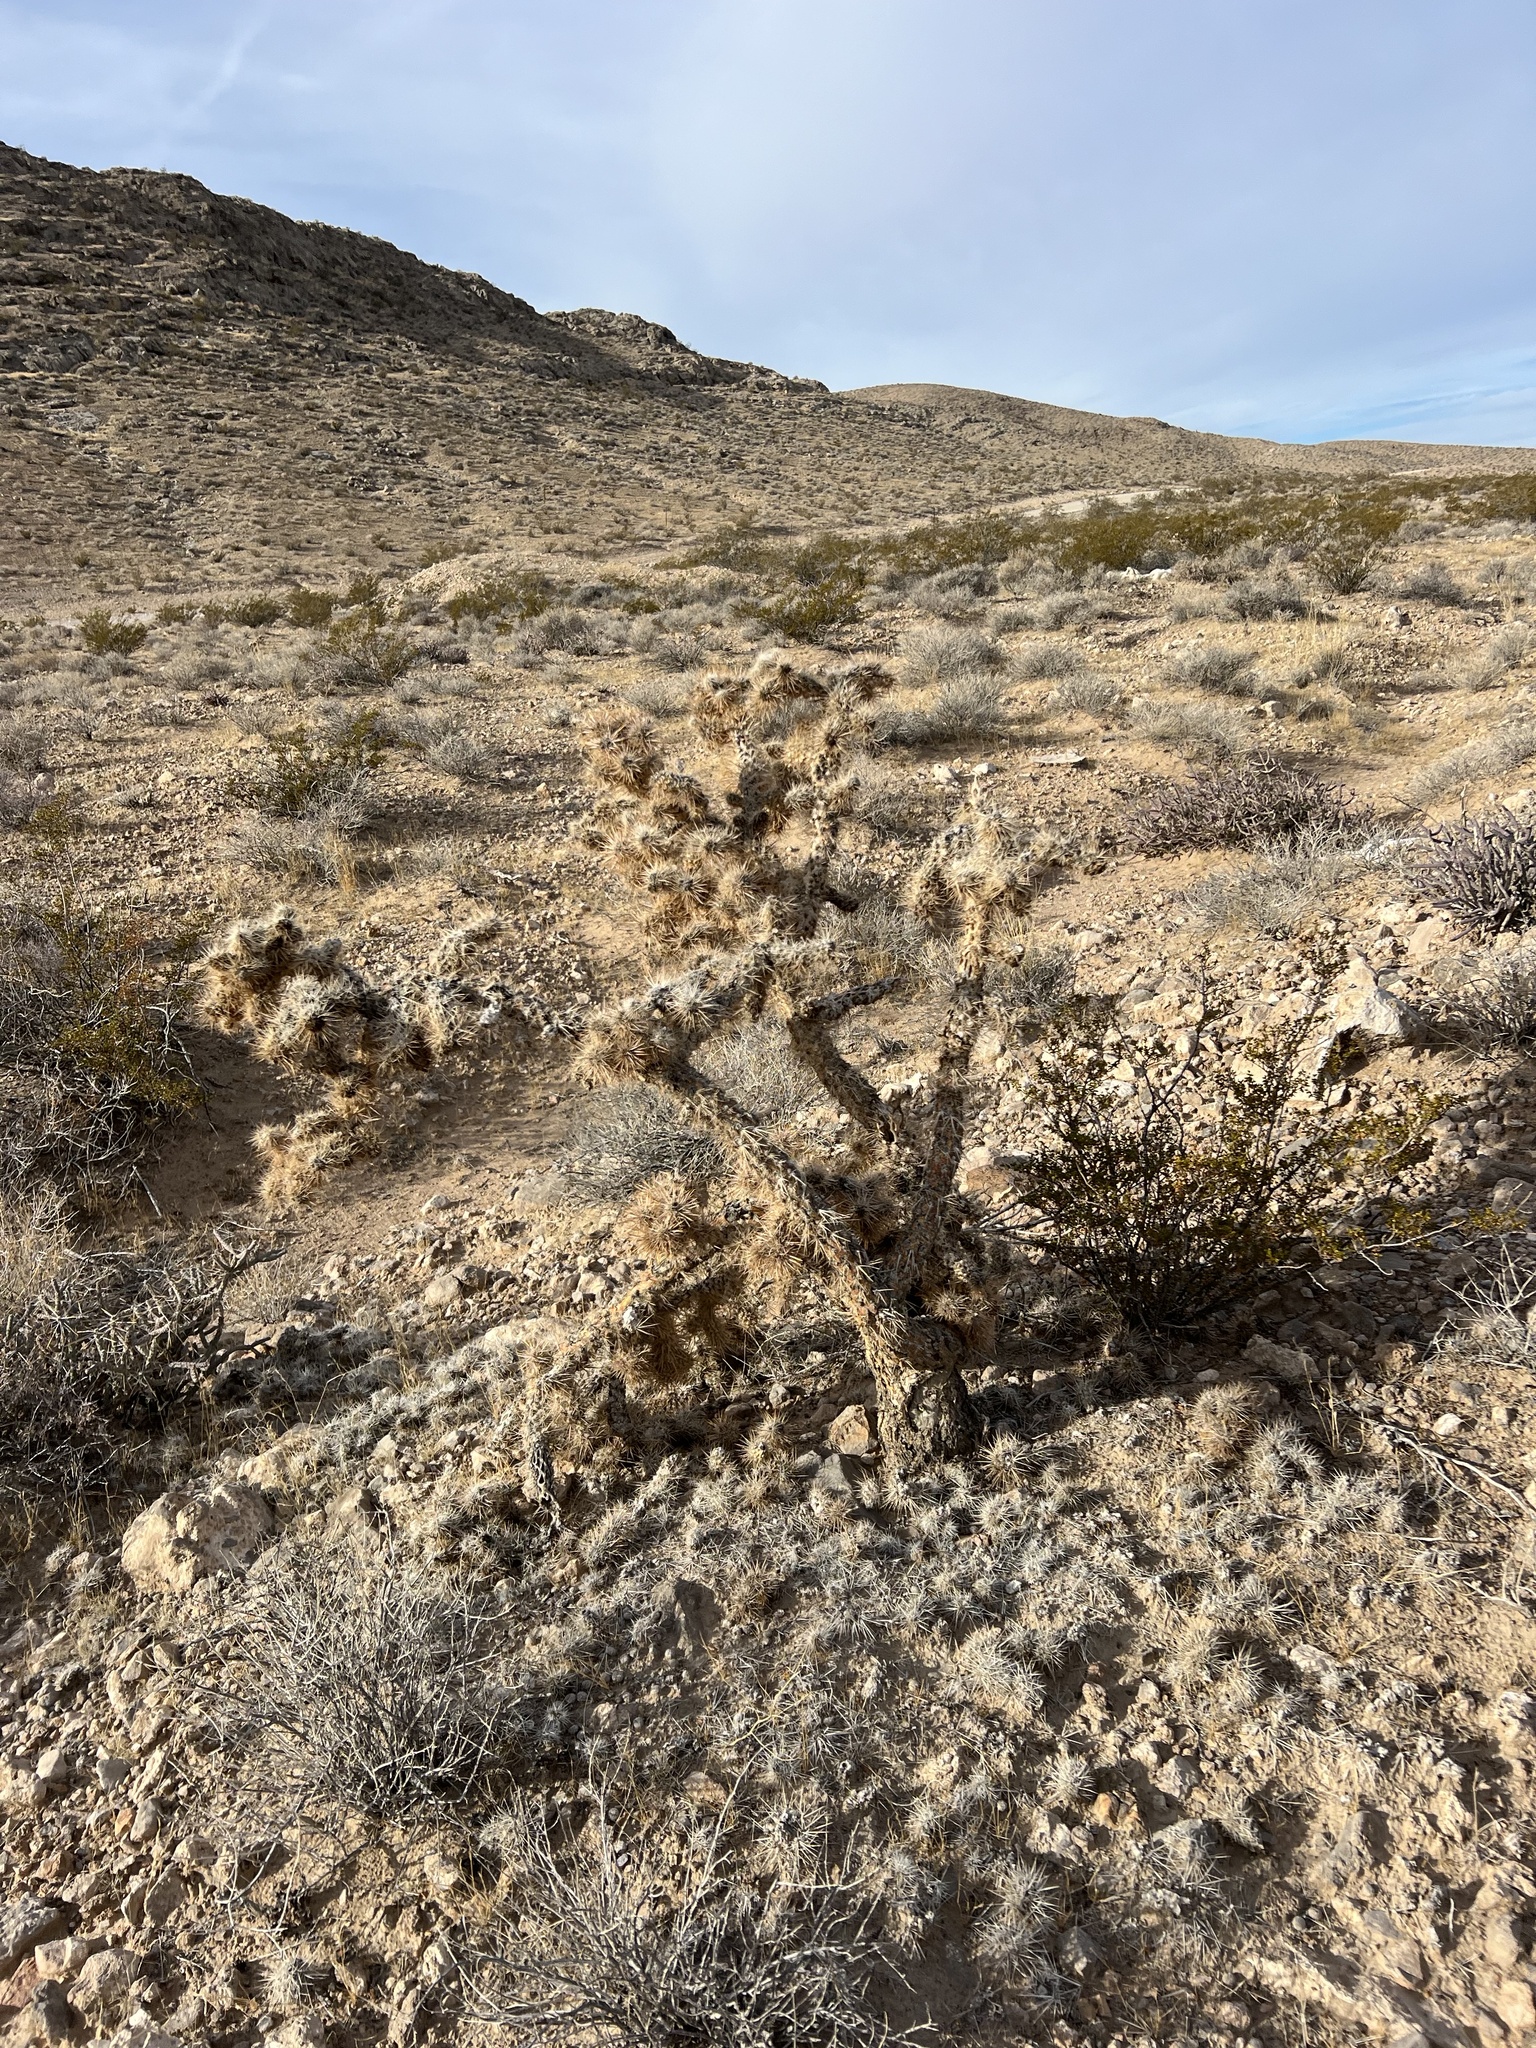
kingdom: Plantae
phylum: Tracheophyta
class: Magnoliopsida
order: Caryophyllales
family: Cactaceae
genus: Cylindropuntia
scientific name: Cylindropuntia echinocarpa
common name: Ground cholla
